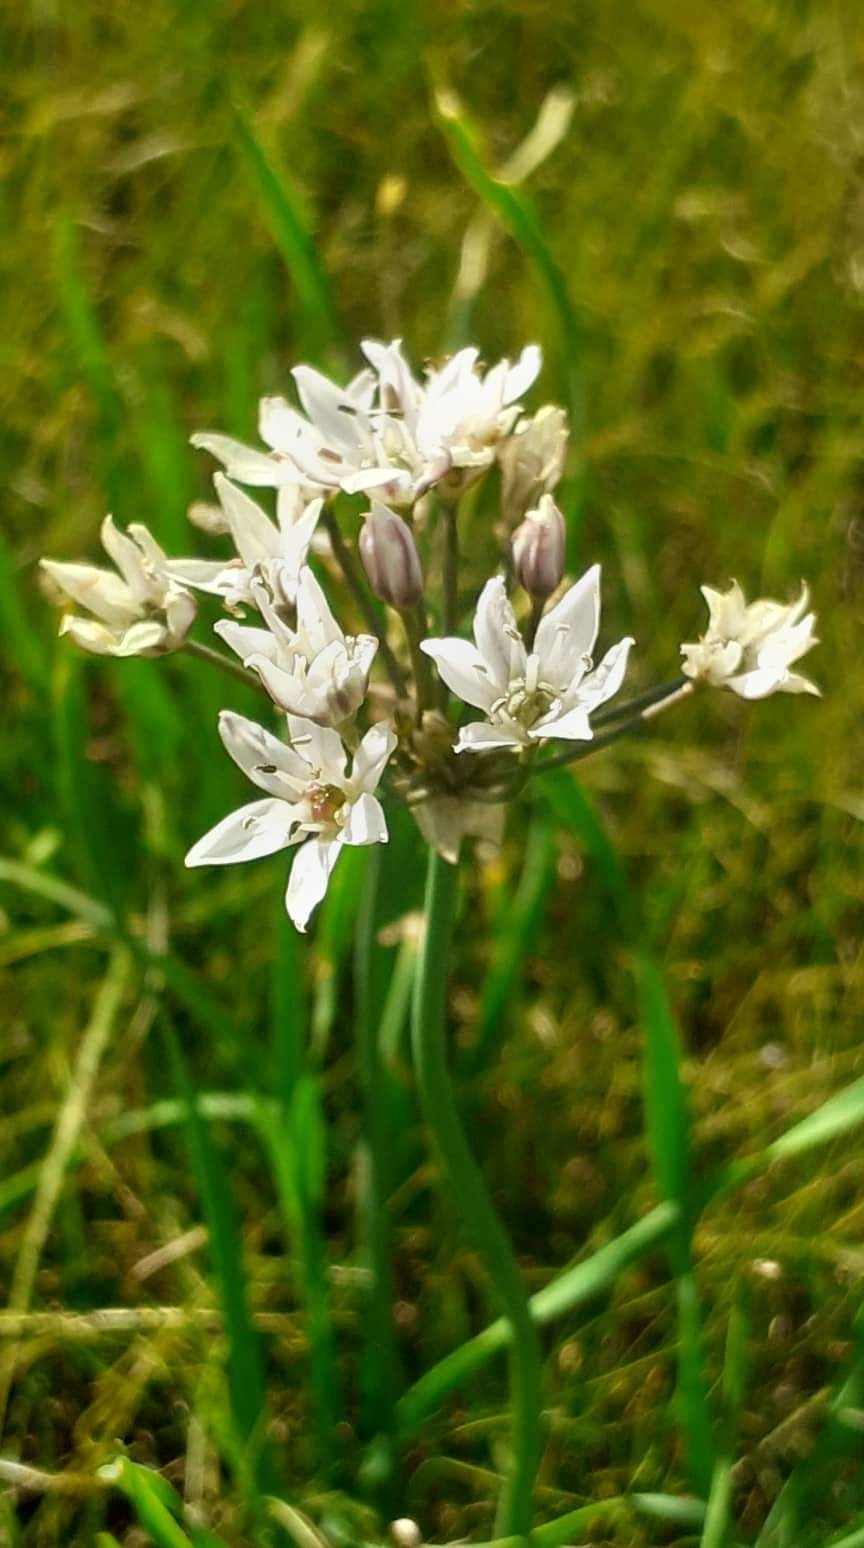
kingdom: Plantae
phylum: Tracheophyta
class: Liliopsida
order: Asparagales
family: Amaryllidaceae
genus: Allium
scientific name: Allium ramosum
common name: Fragrant garlic
